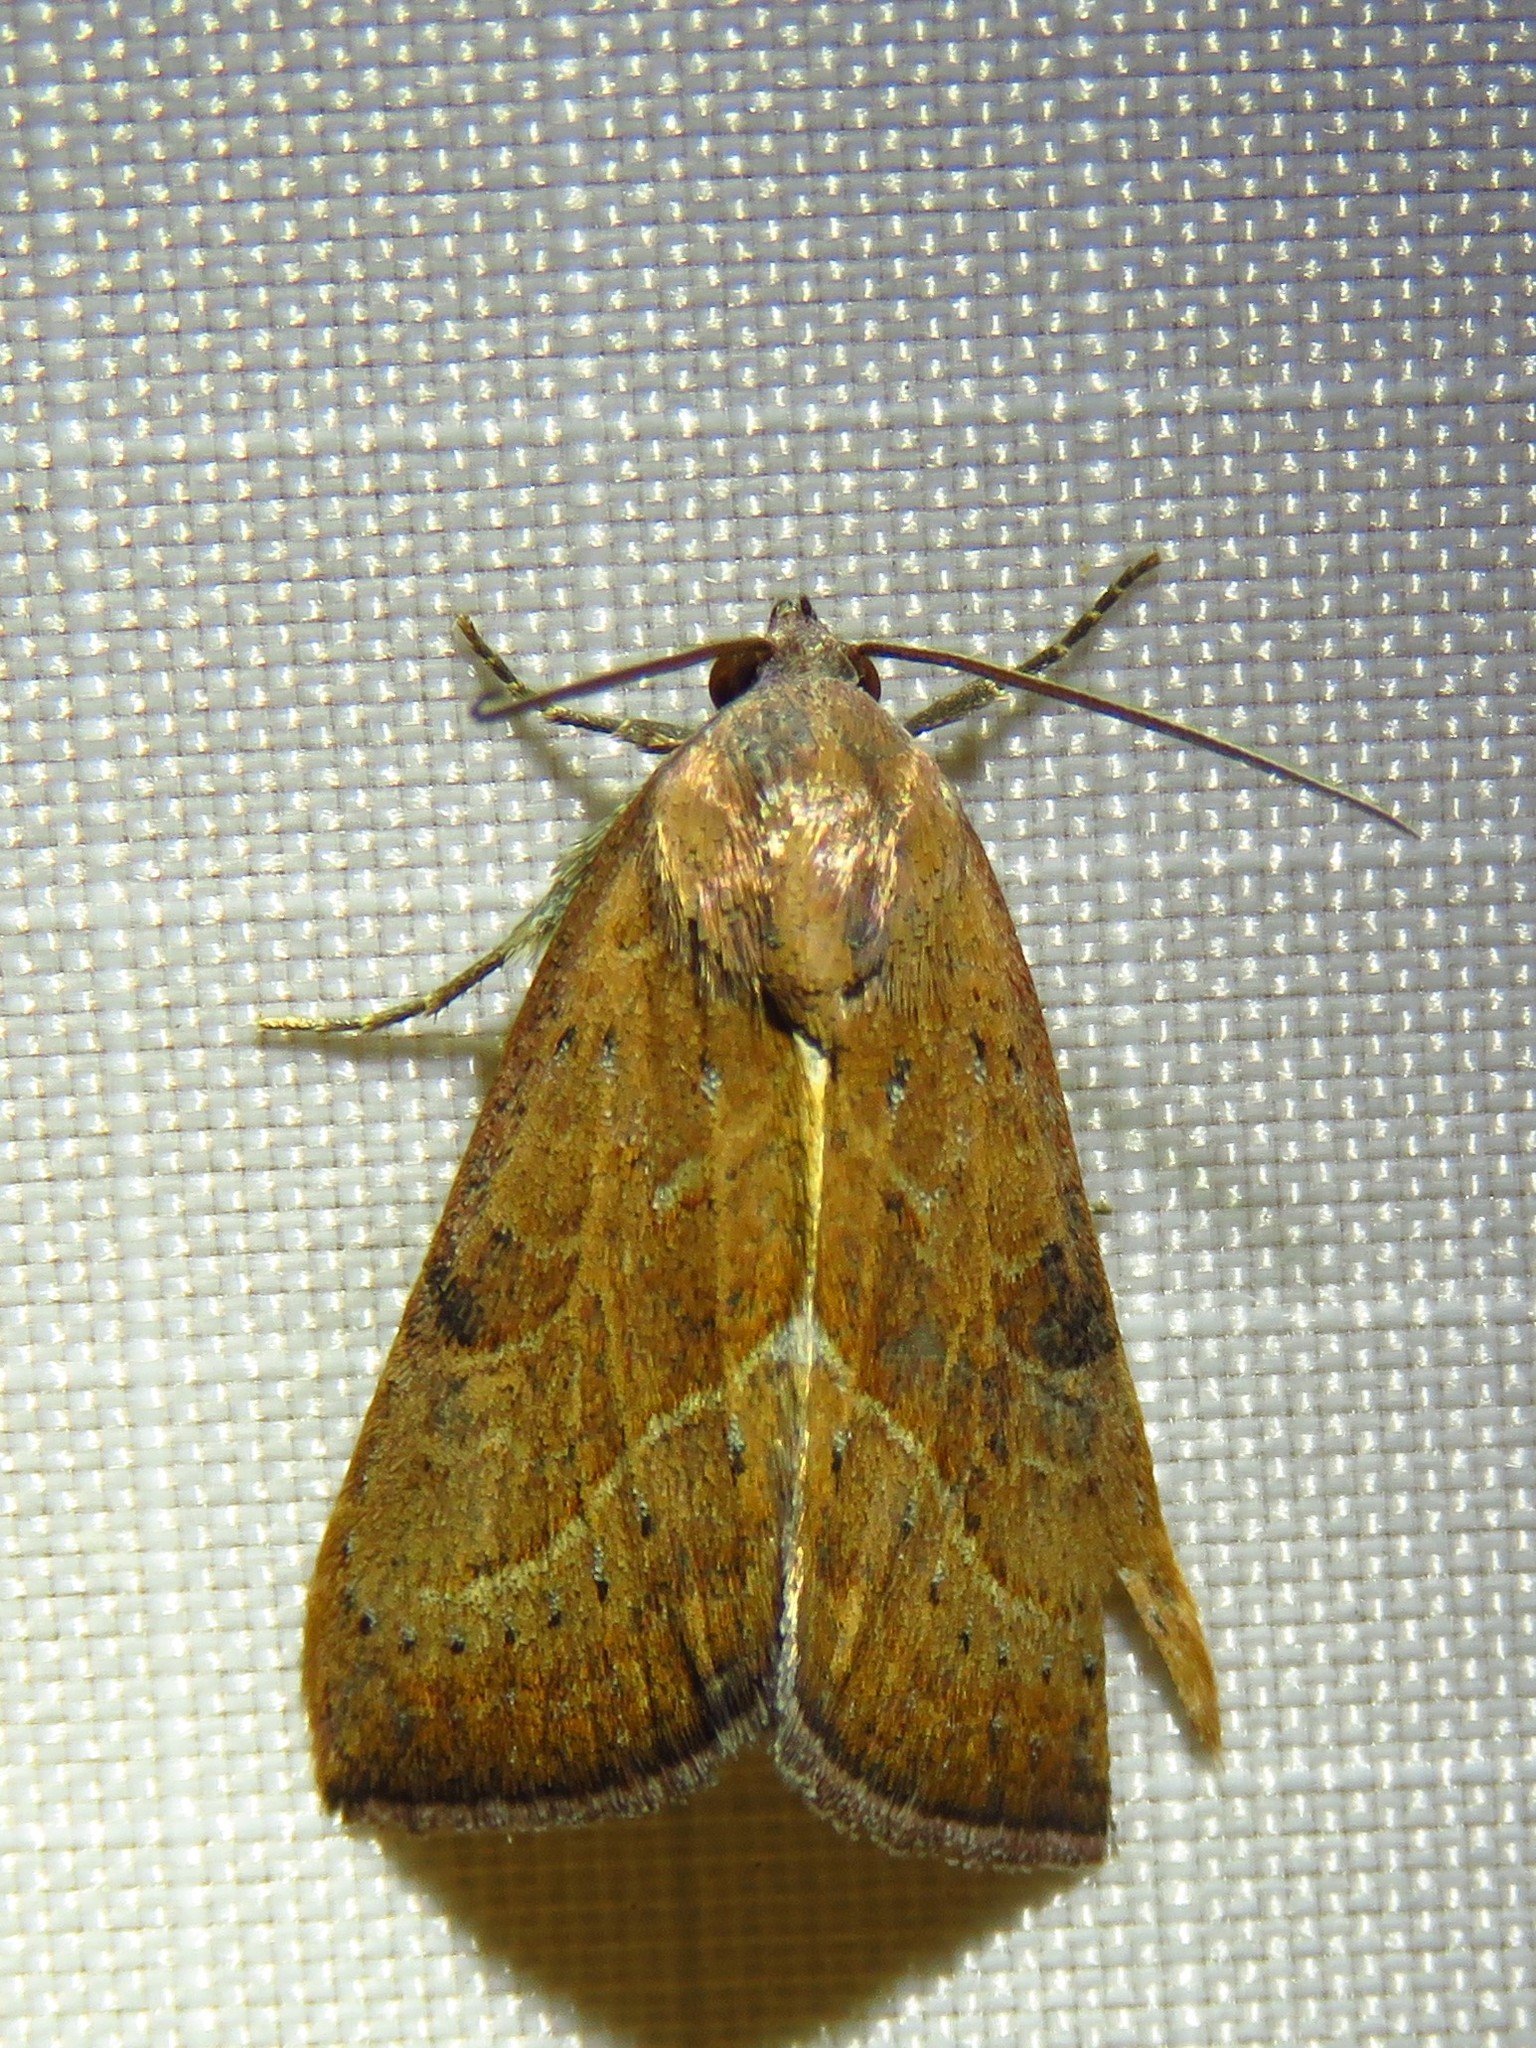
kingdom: Animalia
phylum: Arthropoda
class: Insecta
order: Lepidoptera
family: Noctuidae
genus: Galgula
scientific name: Galgula partita
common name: Wedgeling
